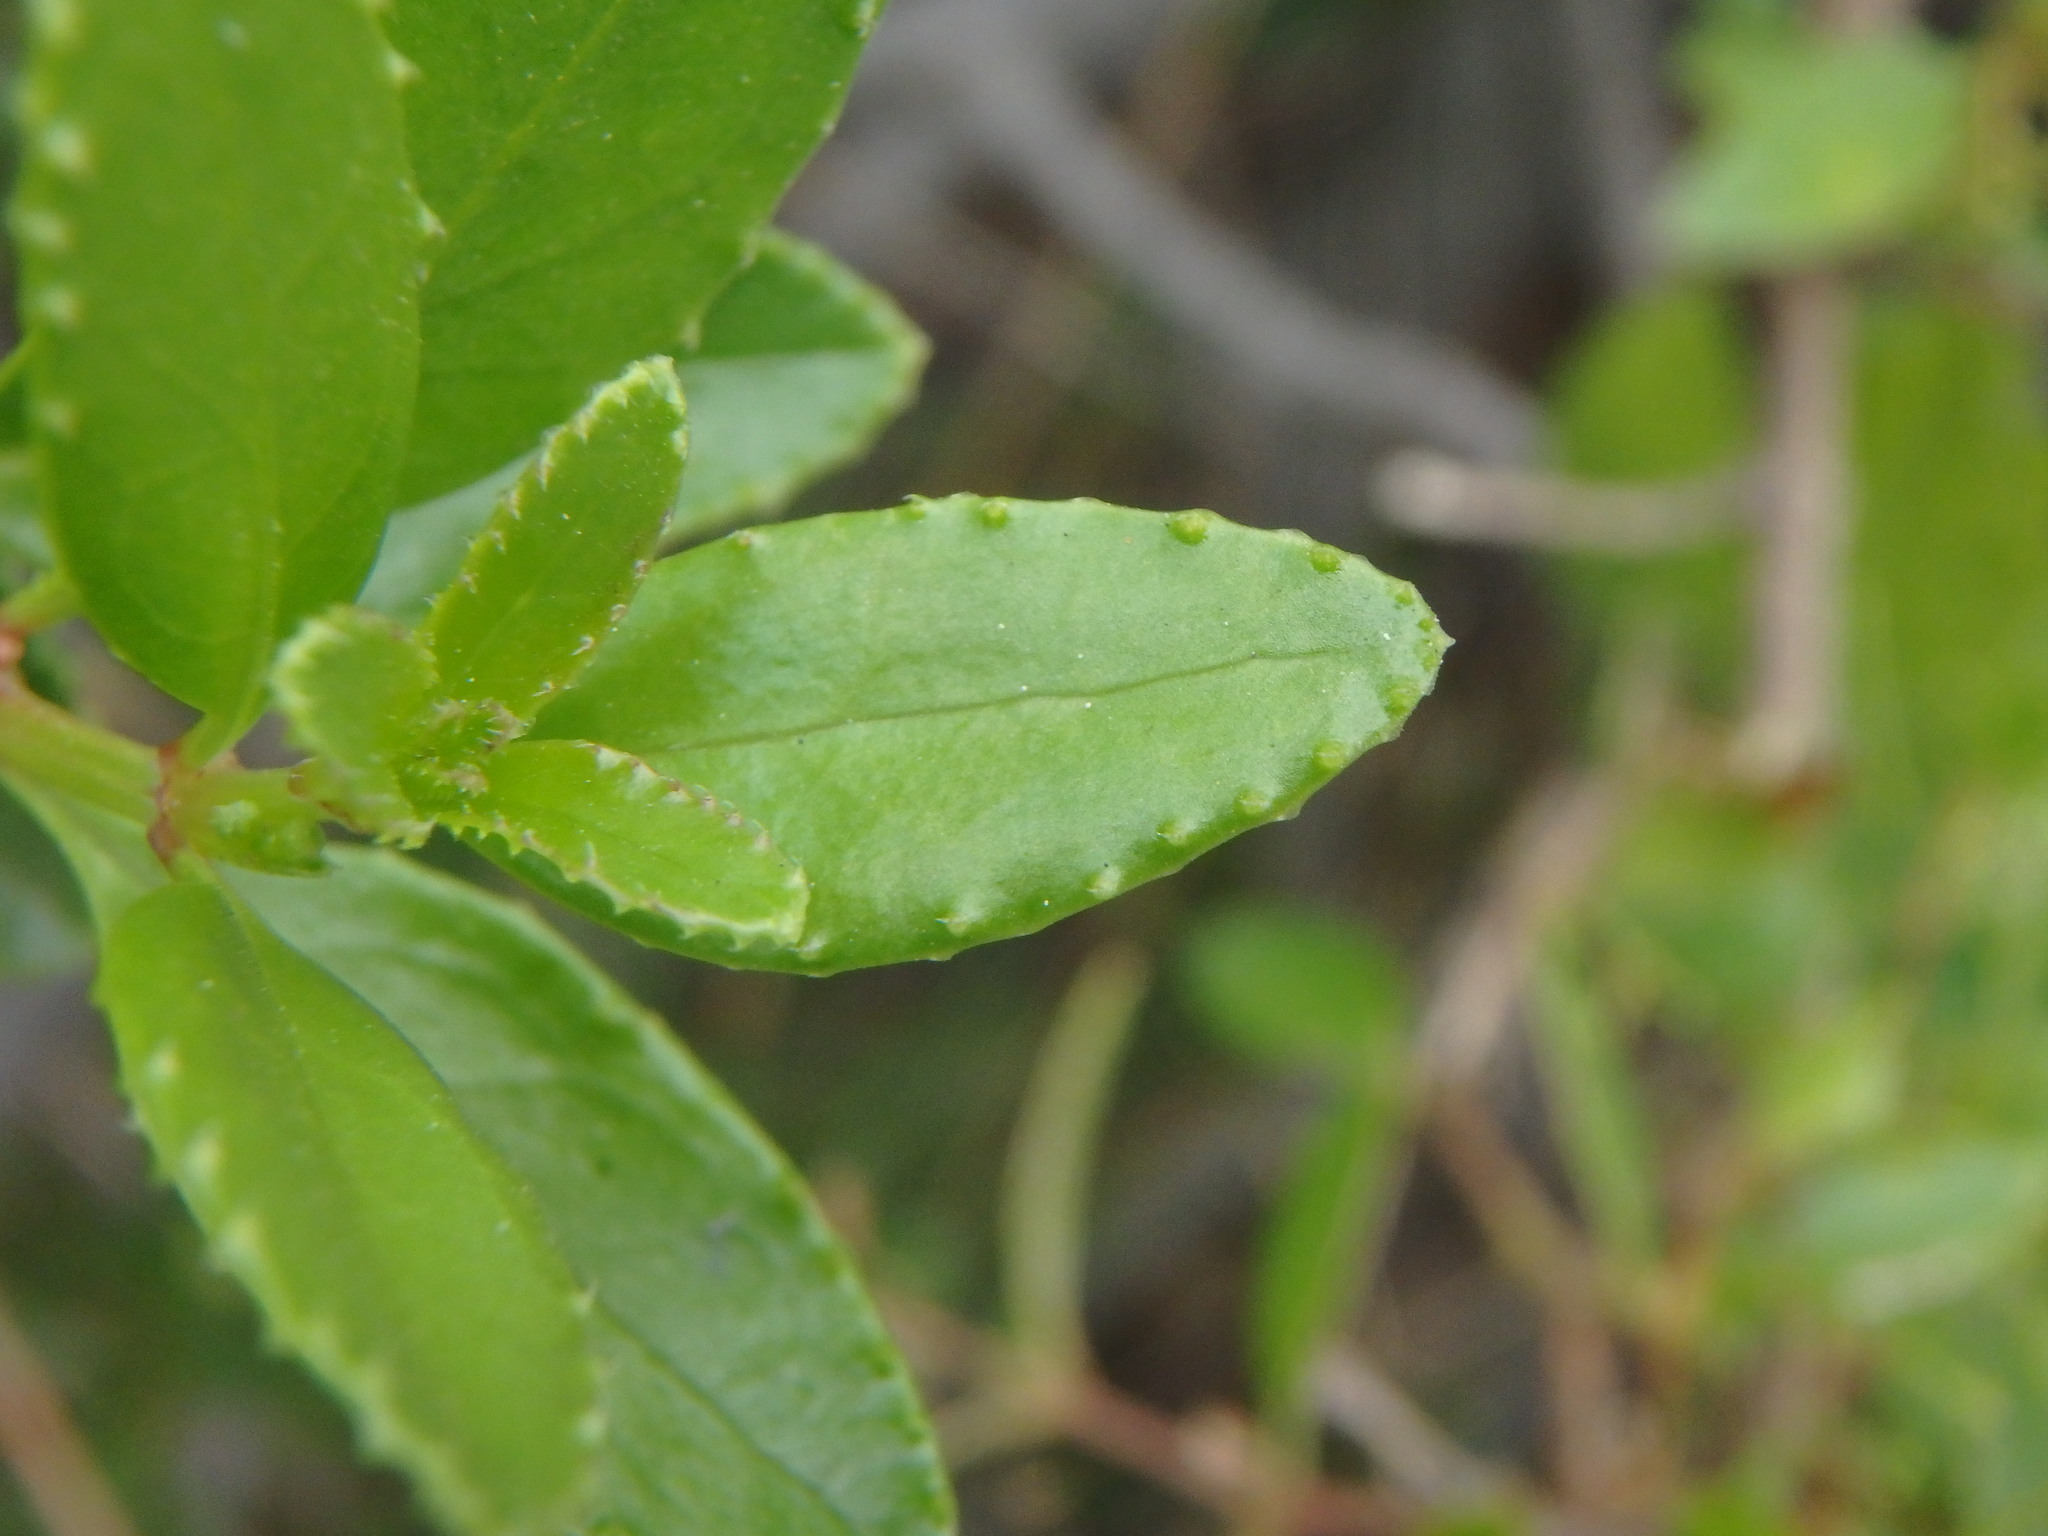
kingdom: Plantae
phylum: Tracheophyta
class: Magnoliopsida
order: Gentianales
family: Rubiaceae
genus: Rubia
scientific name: Rubia fruticosa
